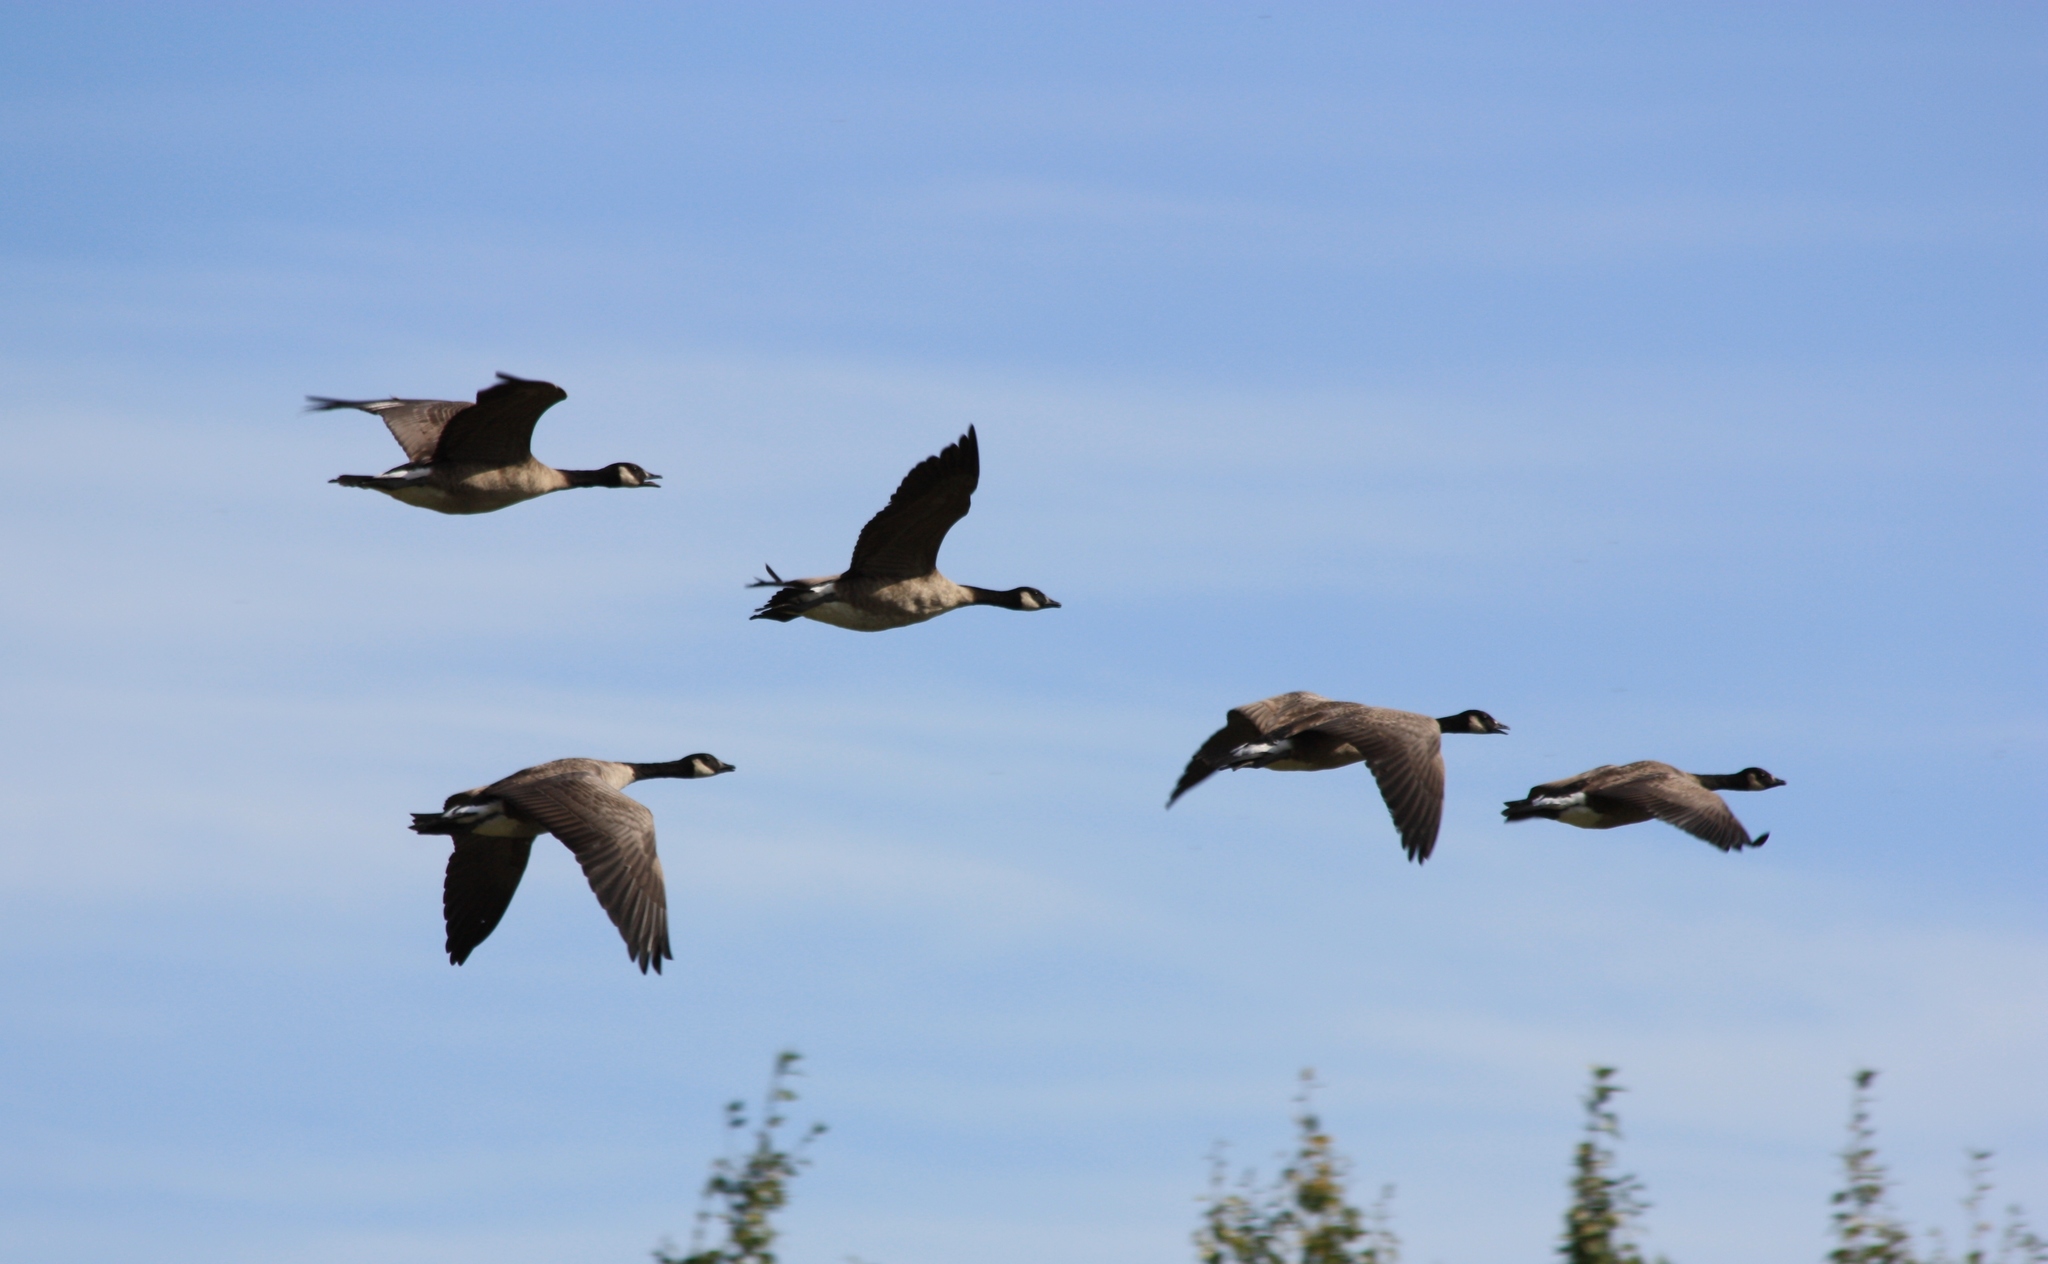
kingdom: Animalia
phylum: Chordata
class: Aves
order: Anseriformes
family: Anatidae
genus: Branta
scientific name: Branta canadensis
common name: Canada goose
